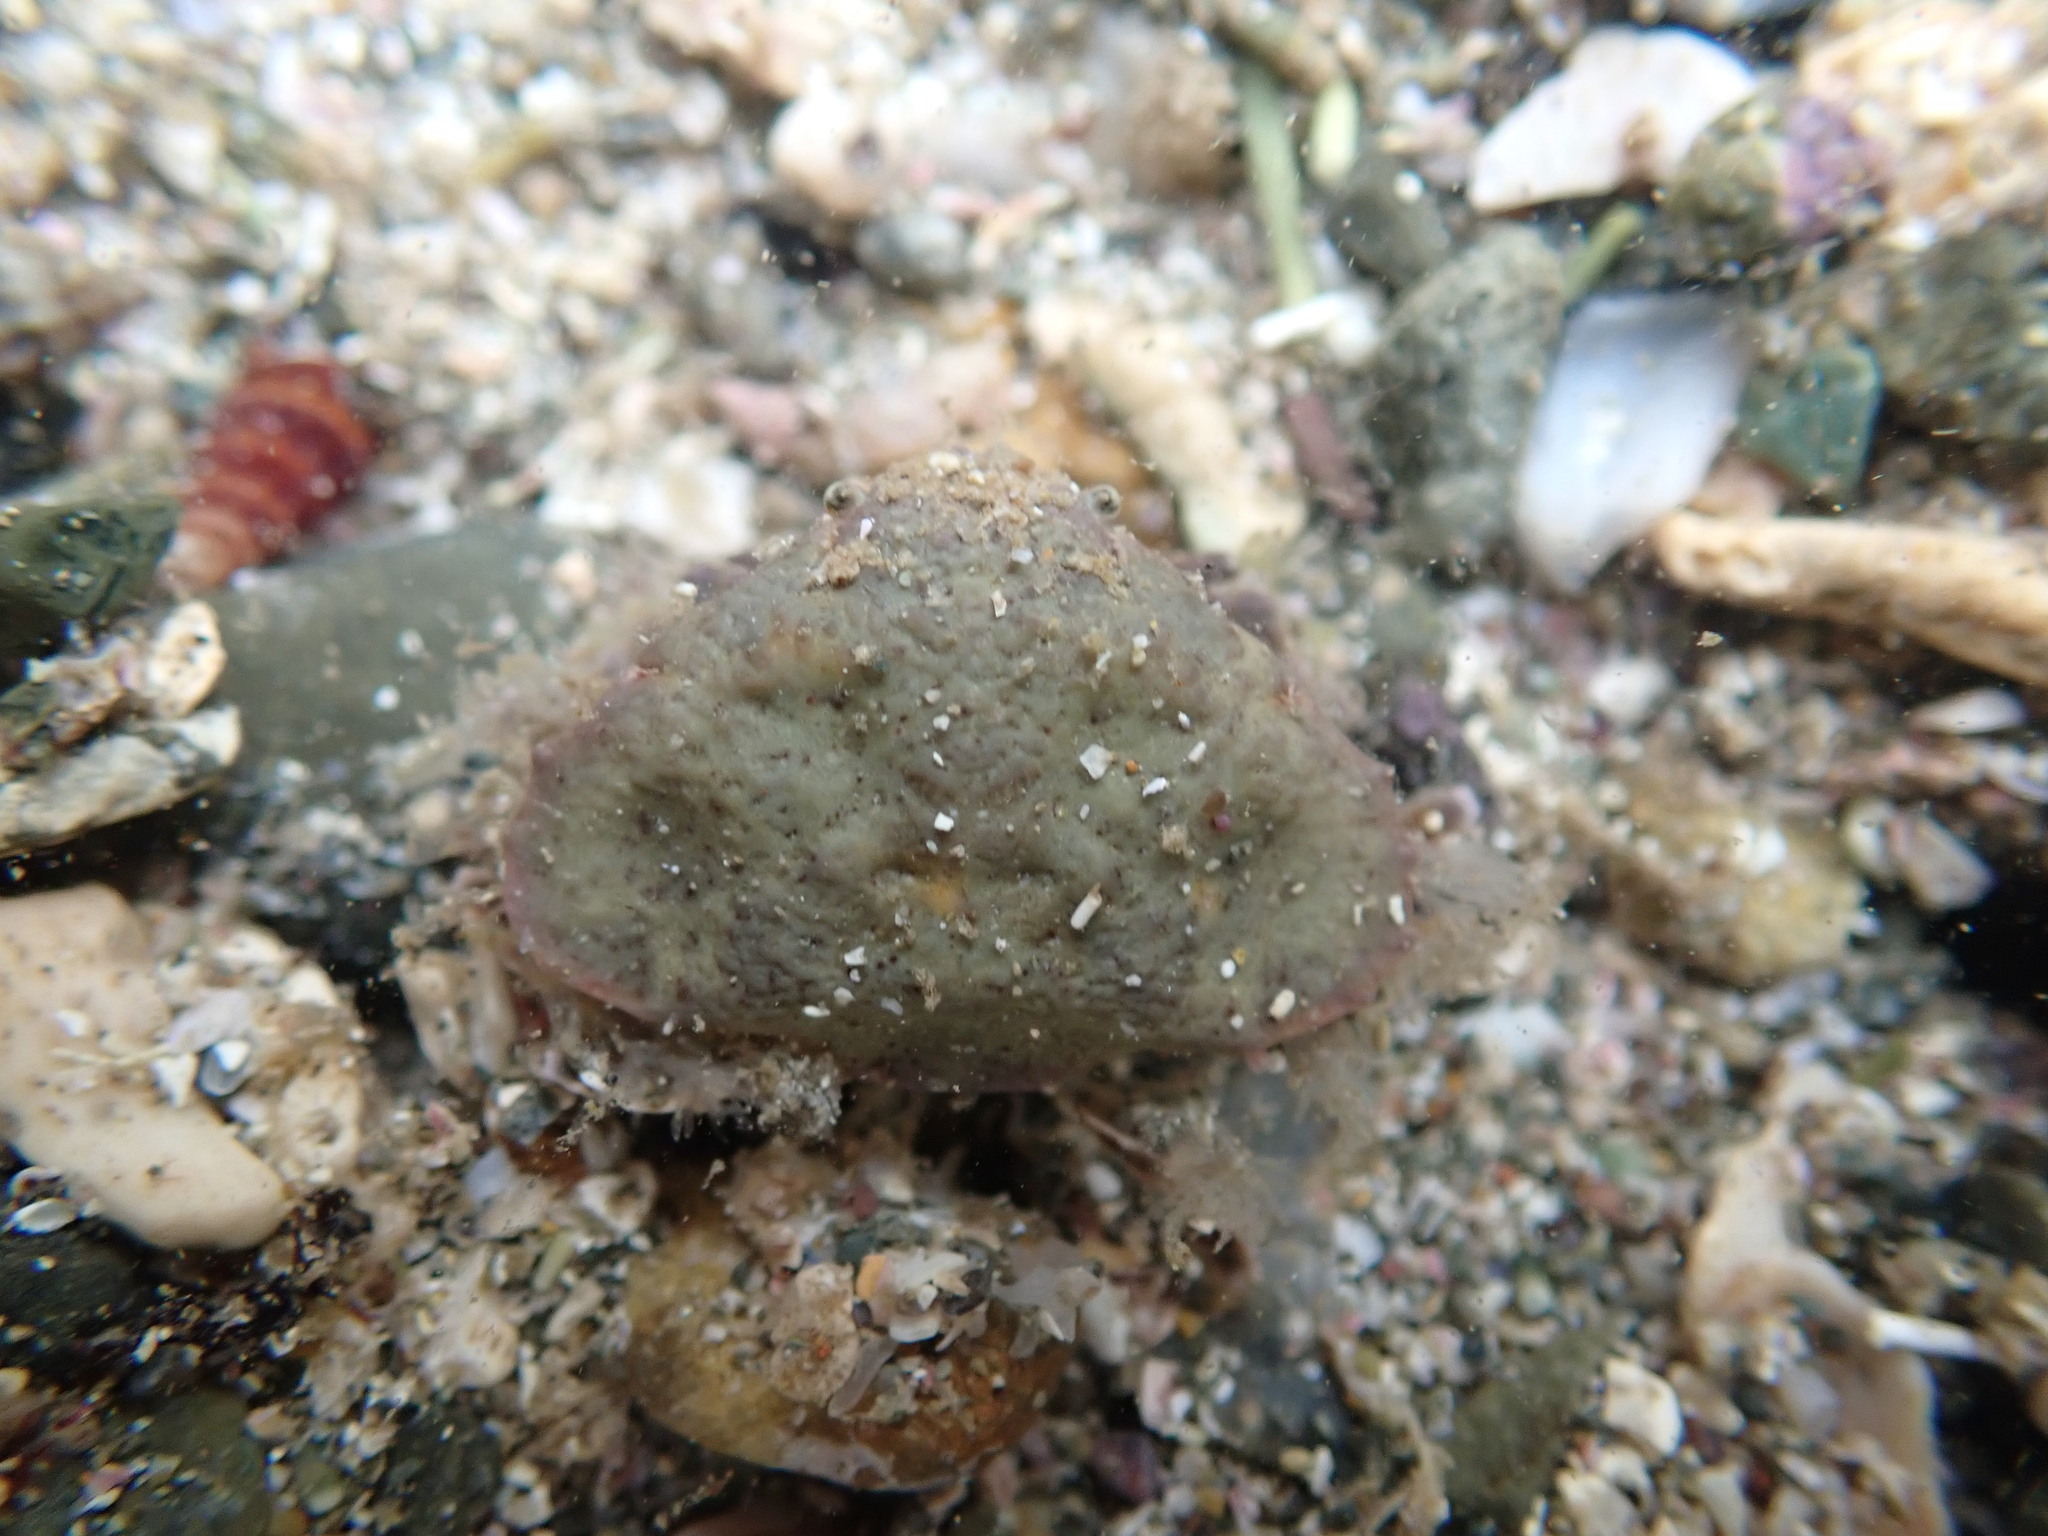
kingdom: Animalia
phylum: Arthropoda
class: Malacostraca
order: Decapoda
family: Majidae
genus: Eurynolambrus
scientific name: Eurynolambrus australis
